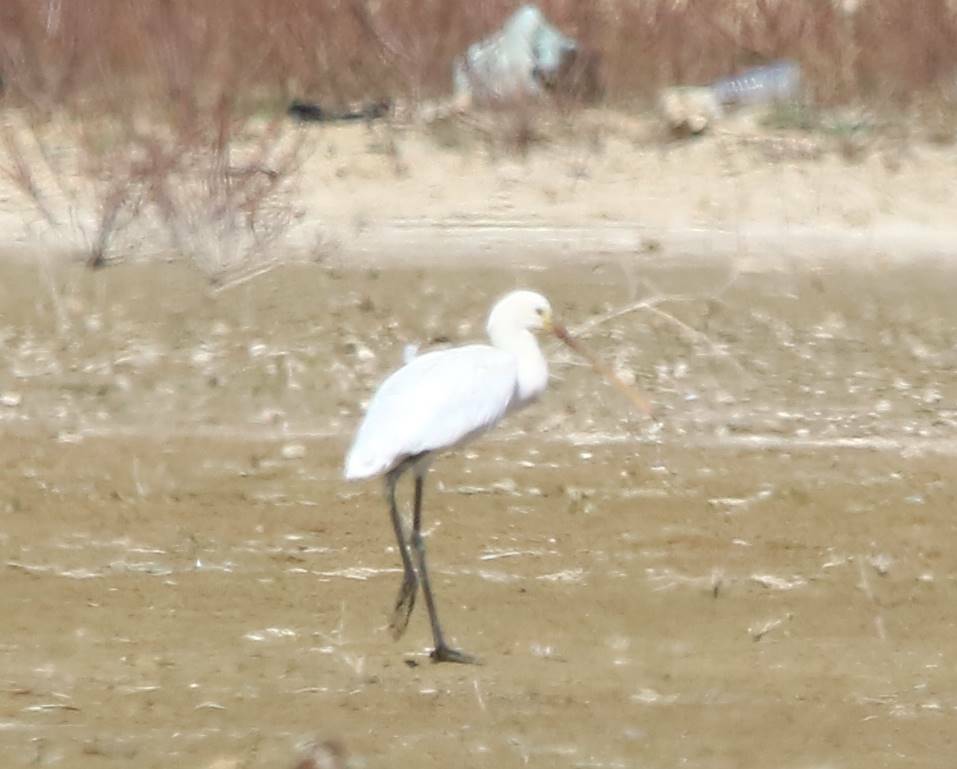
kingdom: Animalia
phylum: Chordata
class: Aves
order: Pelecaniformes
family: Threskiornithidae
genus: Platalea
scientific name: Platalea leucorodia
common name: Eurasian spoonbill
